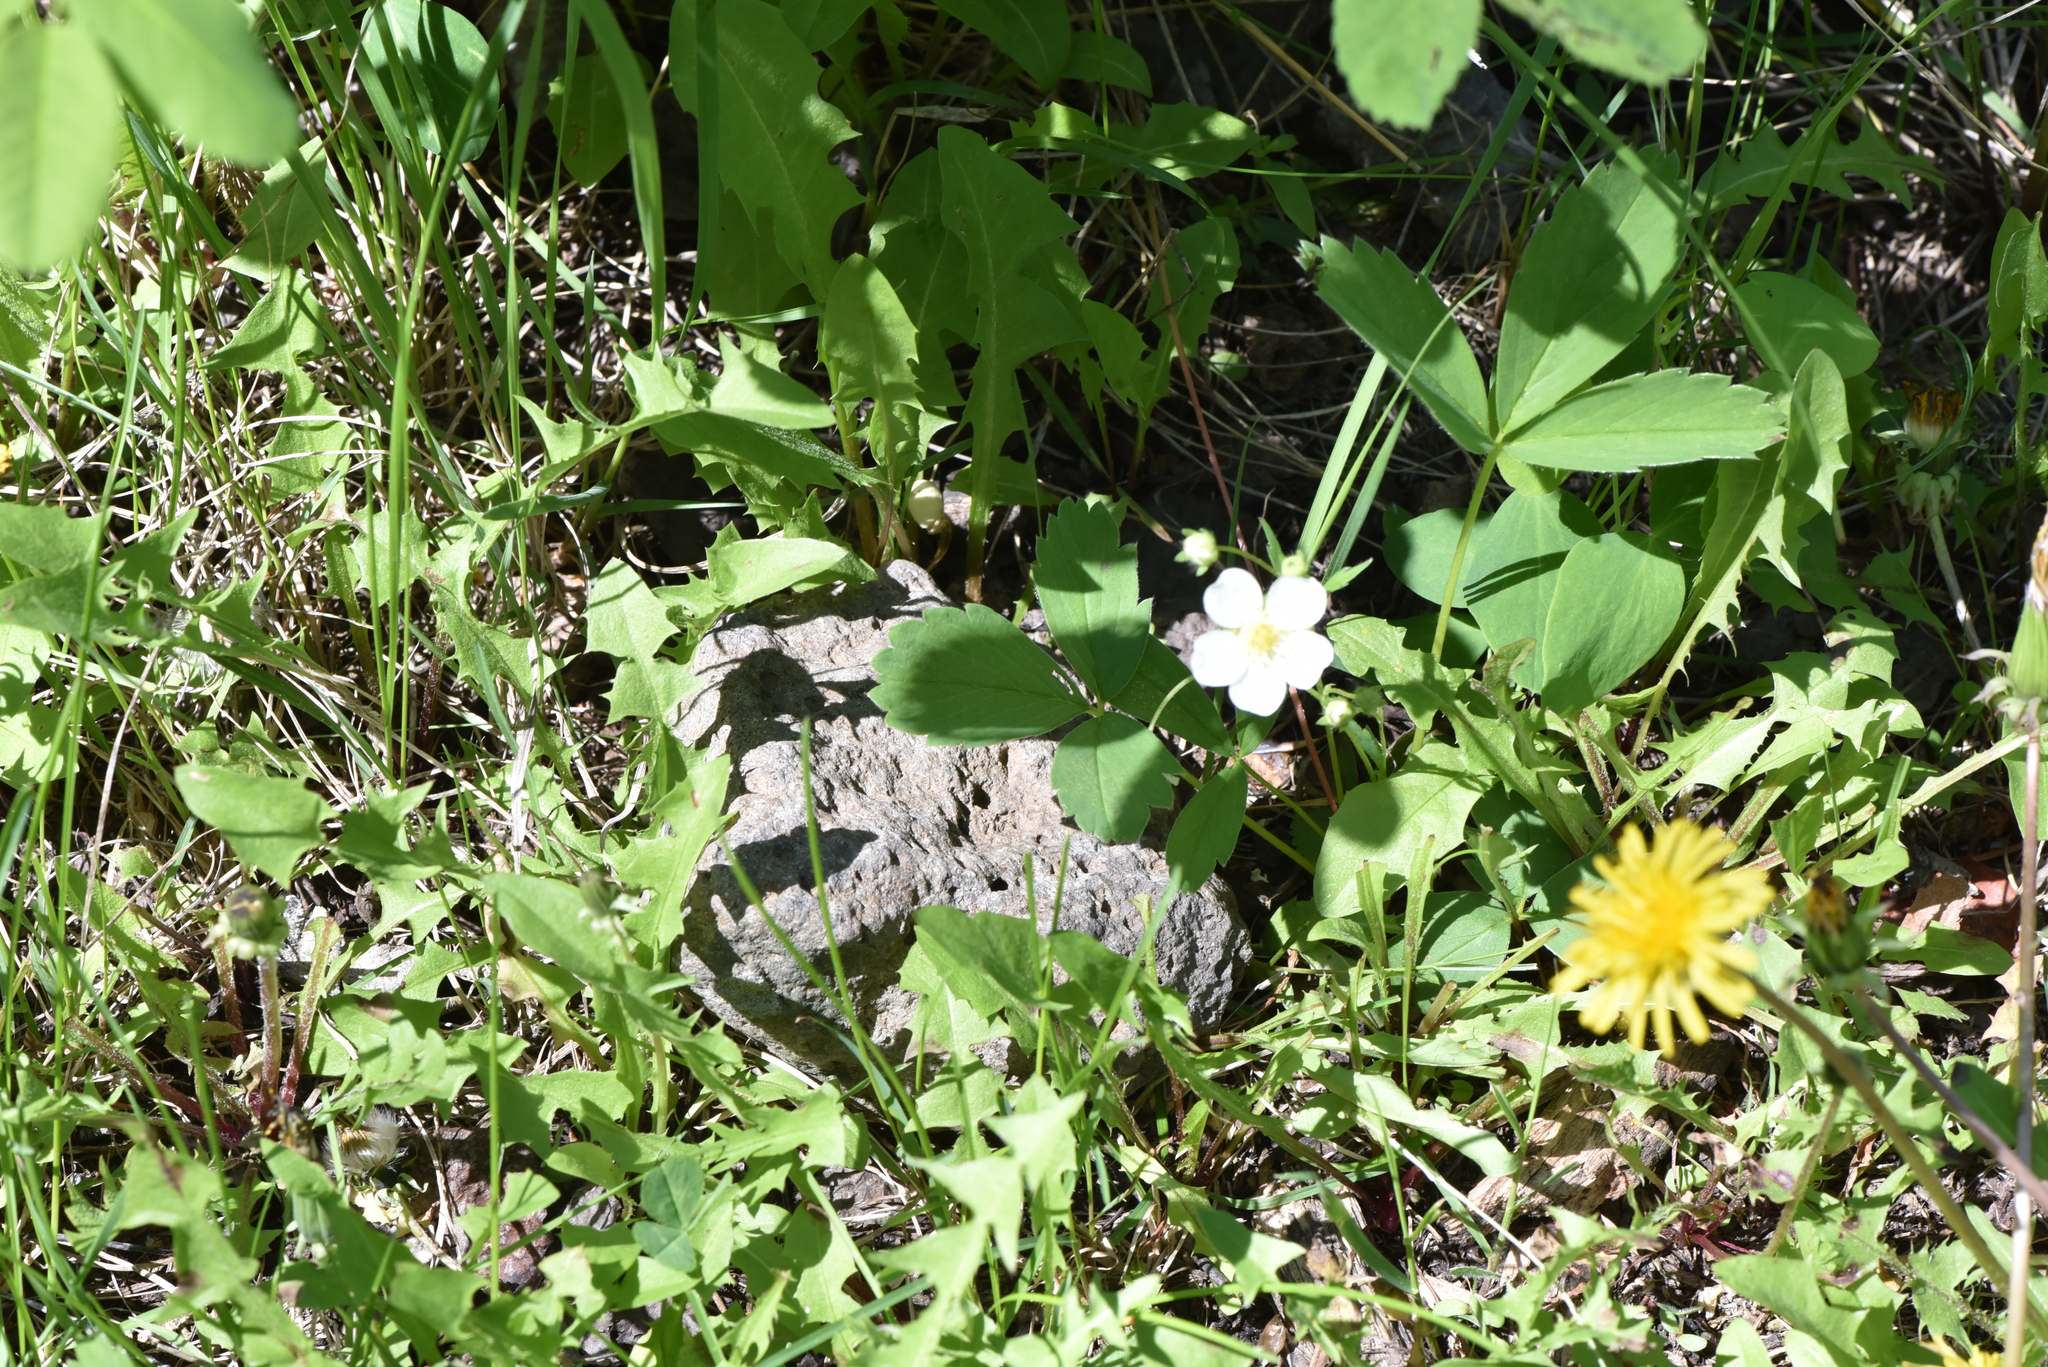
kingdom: Plantae
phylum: Tracheophyta
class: Magnoliopsida
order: Rosales
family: Rosaceae
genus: Fragaria
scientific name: Fragaria virginiana
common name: Thickleaved wild strawberry
